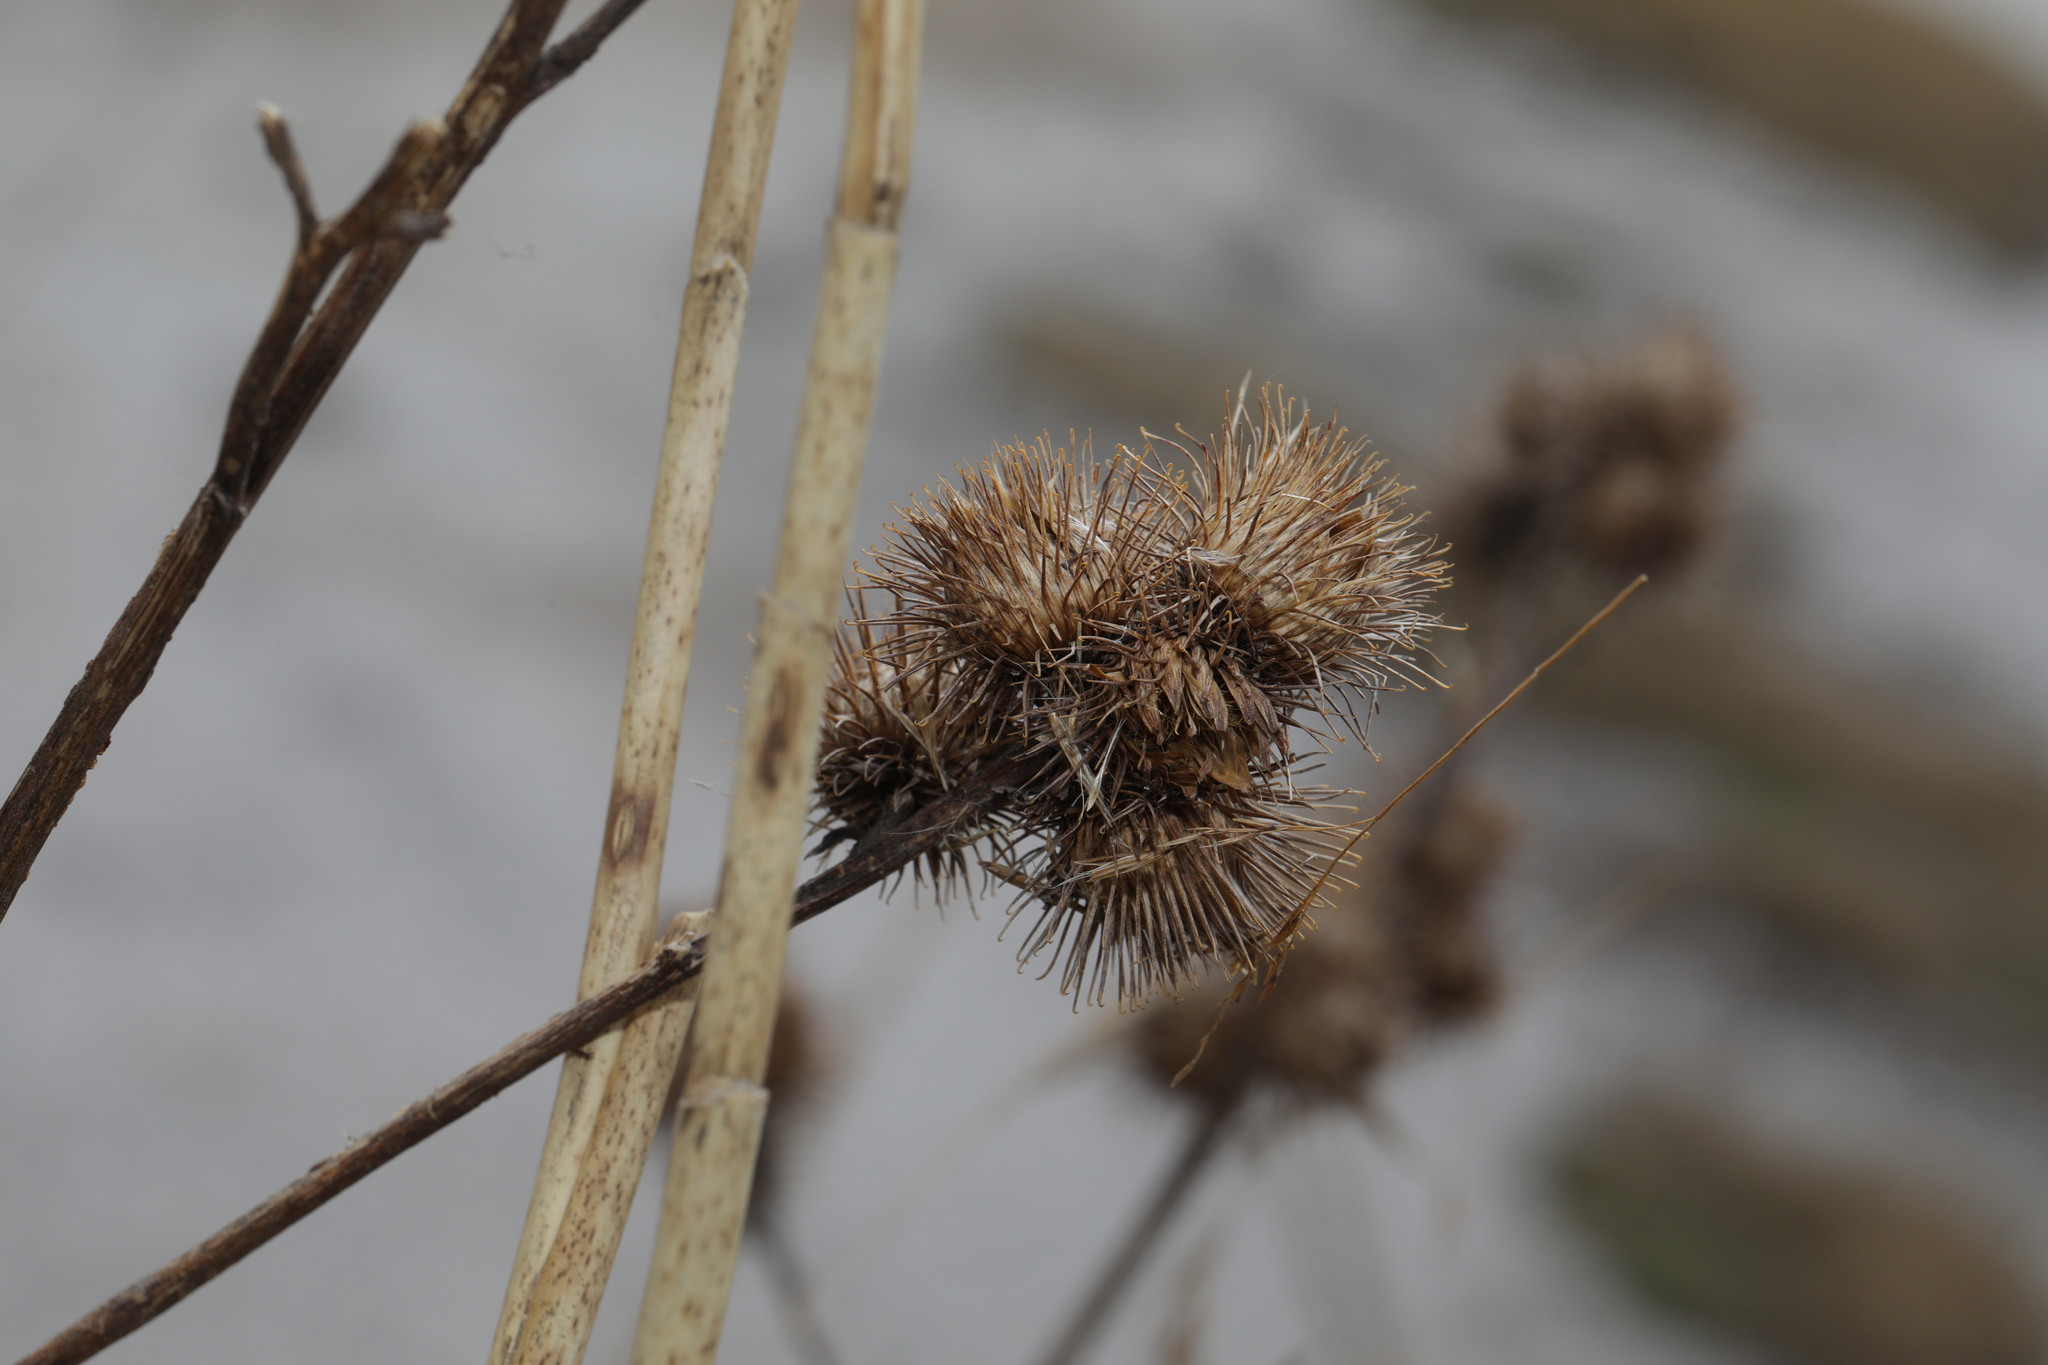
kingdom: Plantae
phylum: Tracheophyta
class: Magnoliopsida
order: Asterales
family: Asteraceae
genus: Arctium
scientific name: Arctium minus
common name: Lesser burdock
